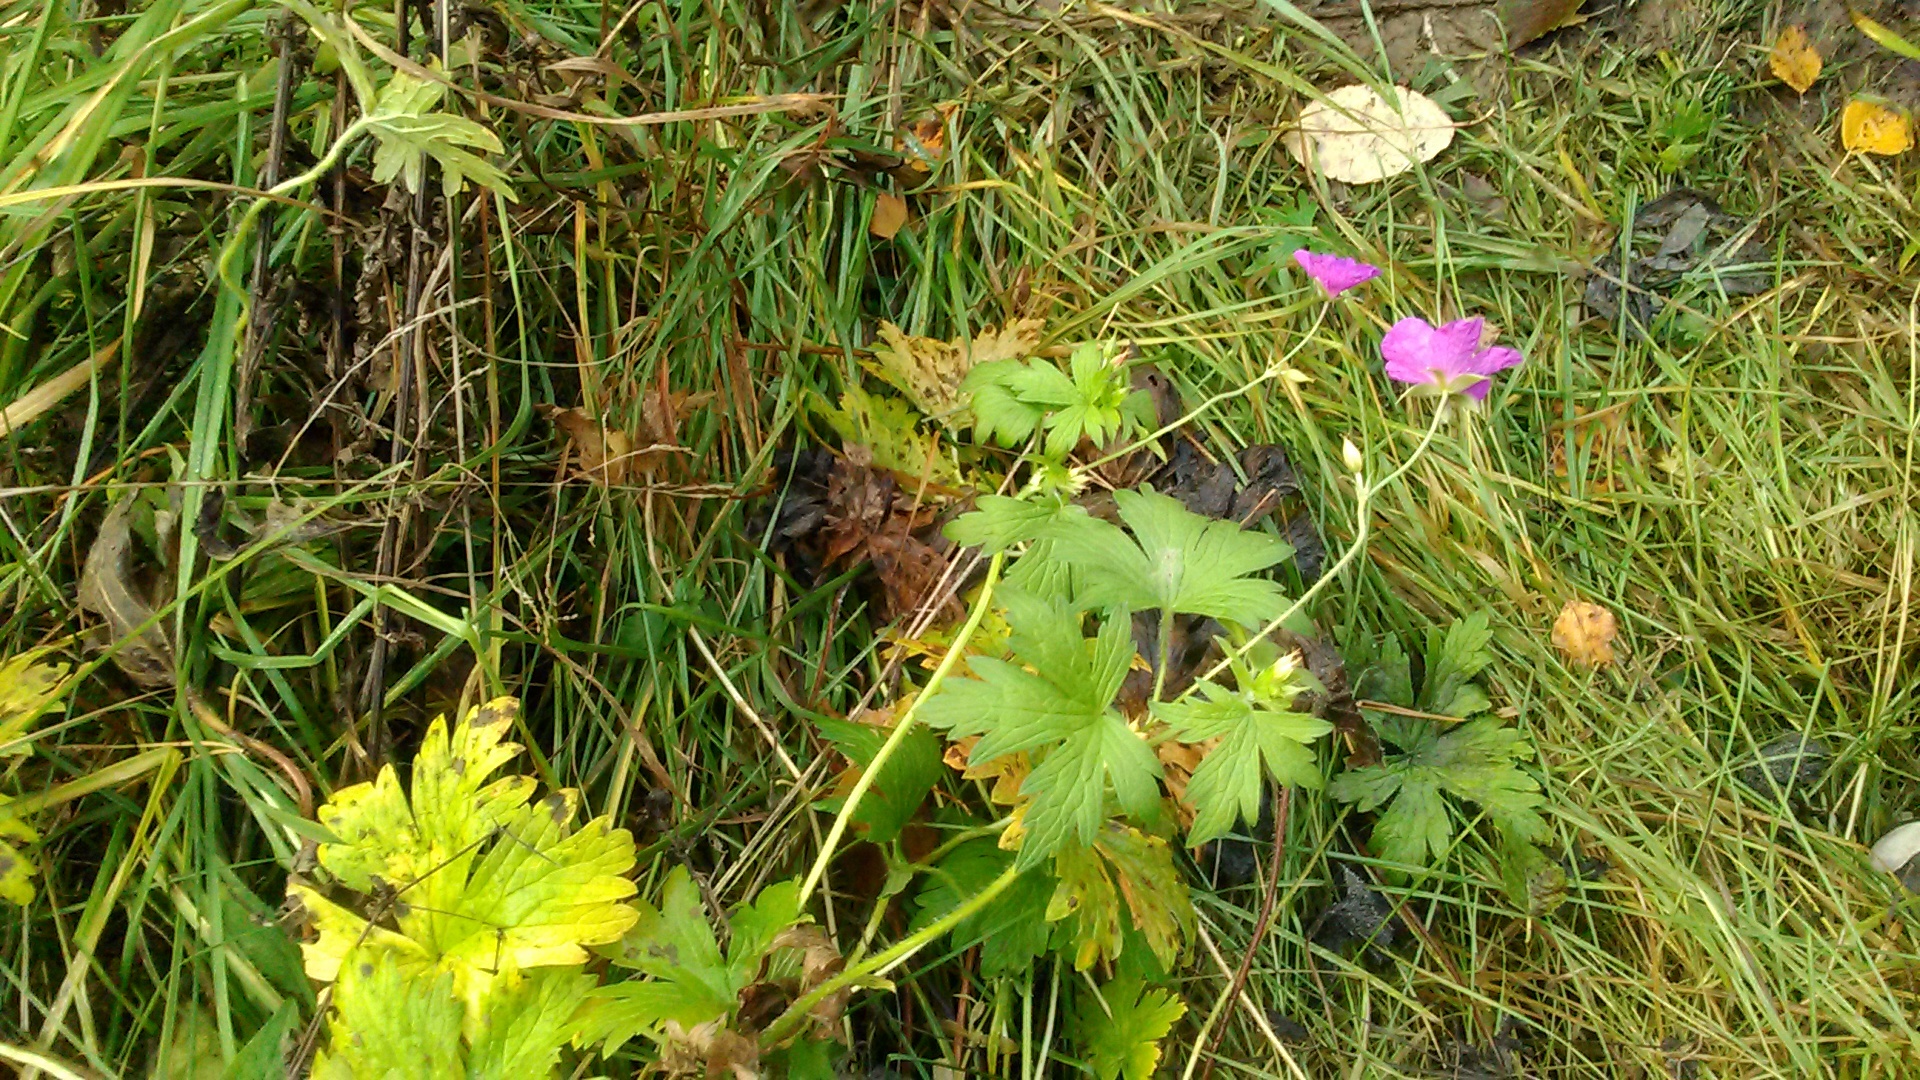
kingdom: Plantae
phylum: Tracheophyta
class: Magnoliopsida
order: Geraniales
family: Geraniaceae
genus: Geranium
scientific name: Geranium palustre
